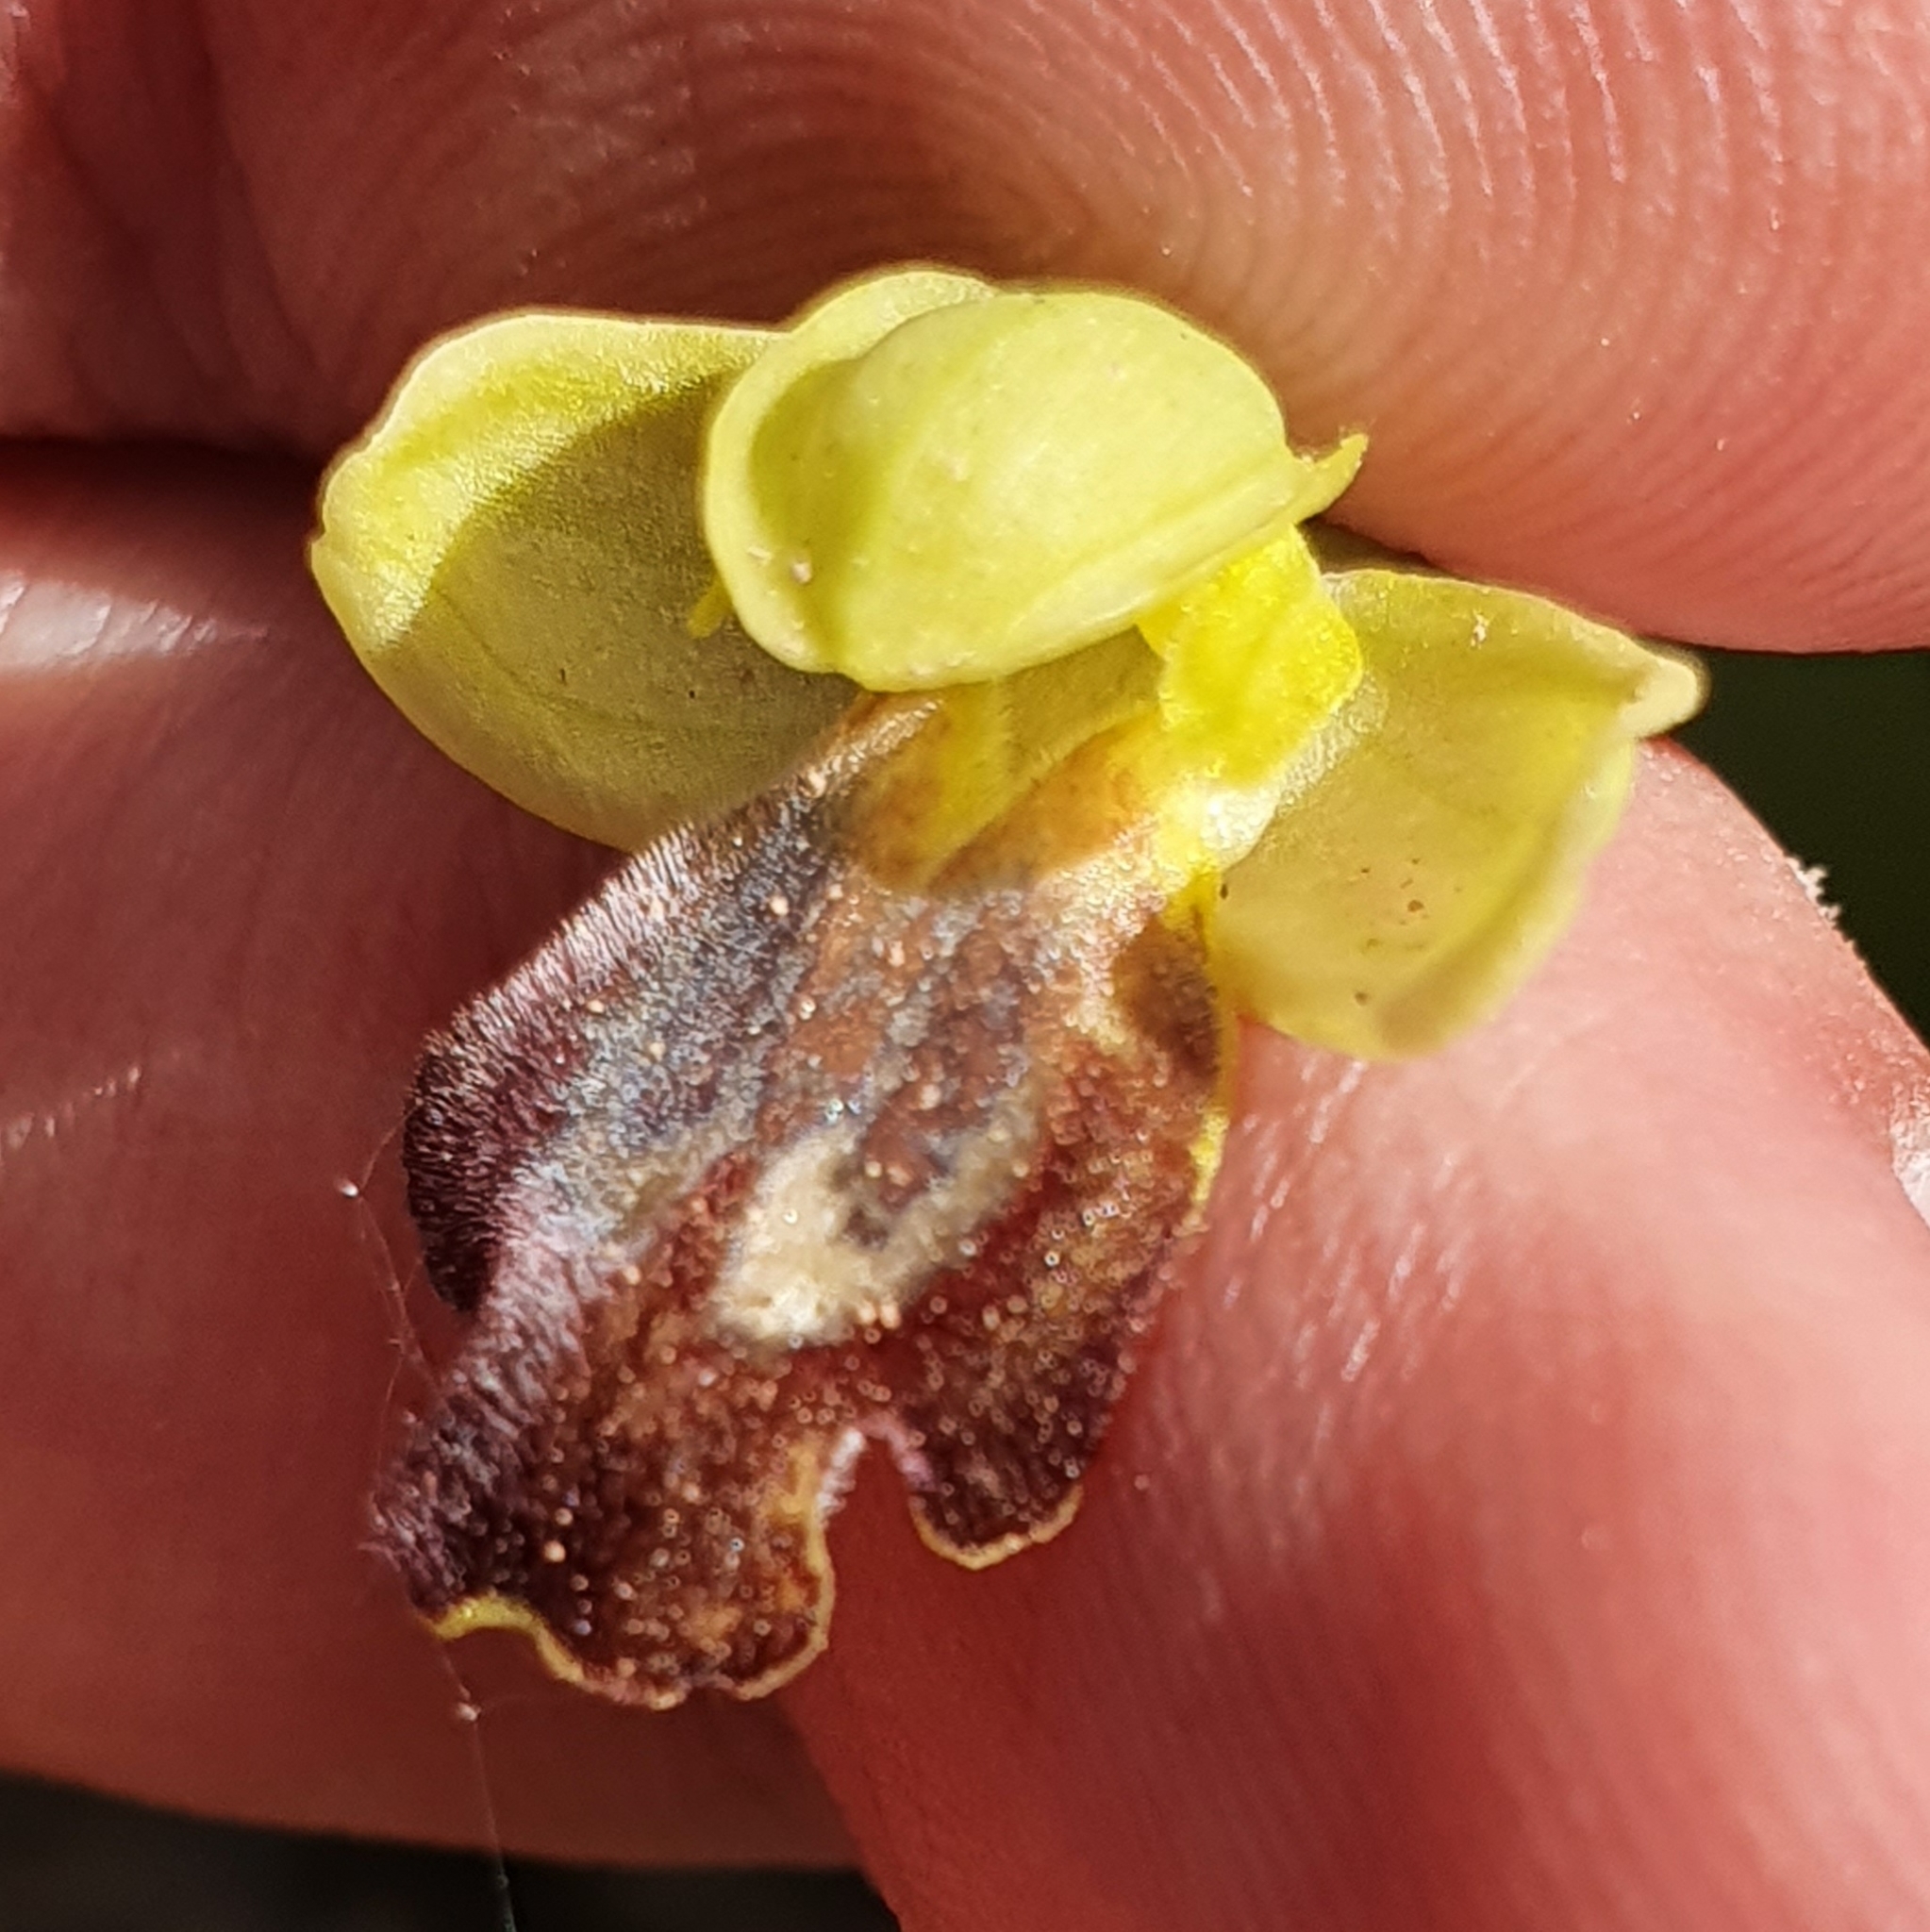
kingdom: Plantae
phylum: Tracheophyta
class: Liliopsida
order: Asparagales
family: Orchidaceae
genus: Ophrys
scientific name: Ophrys fusca
